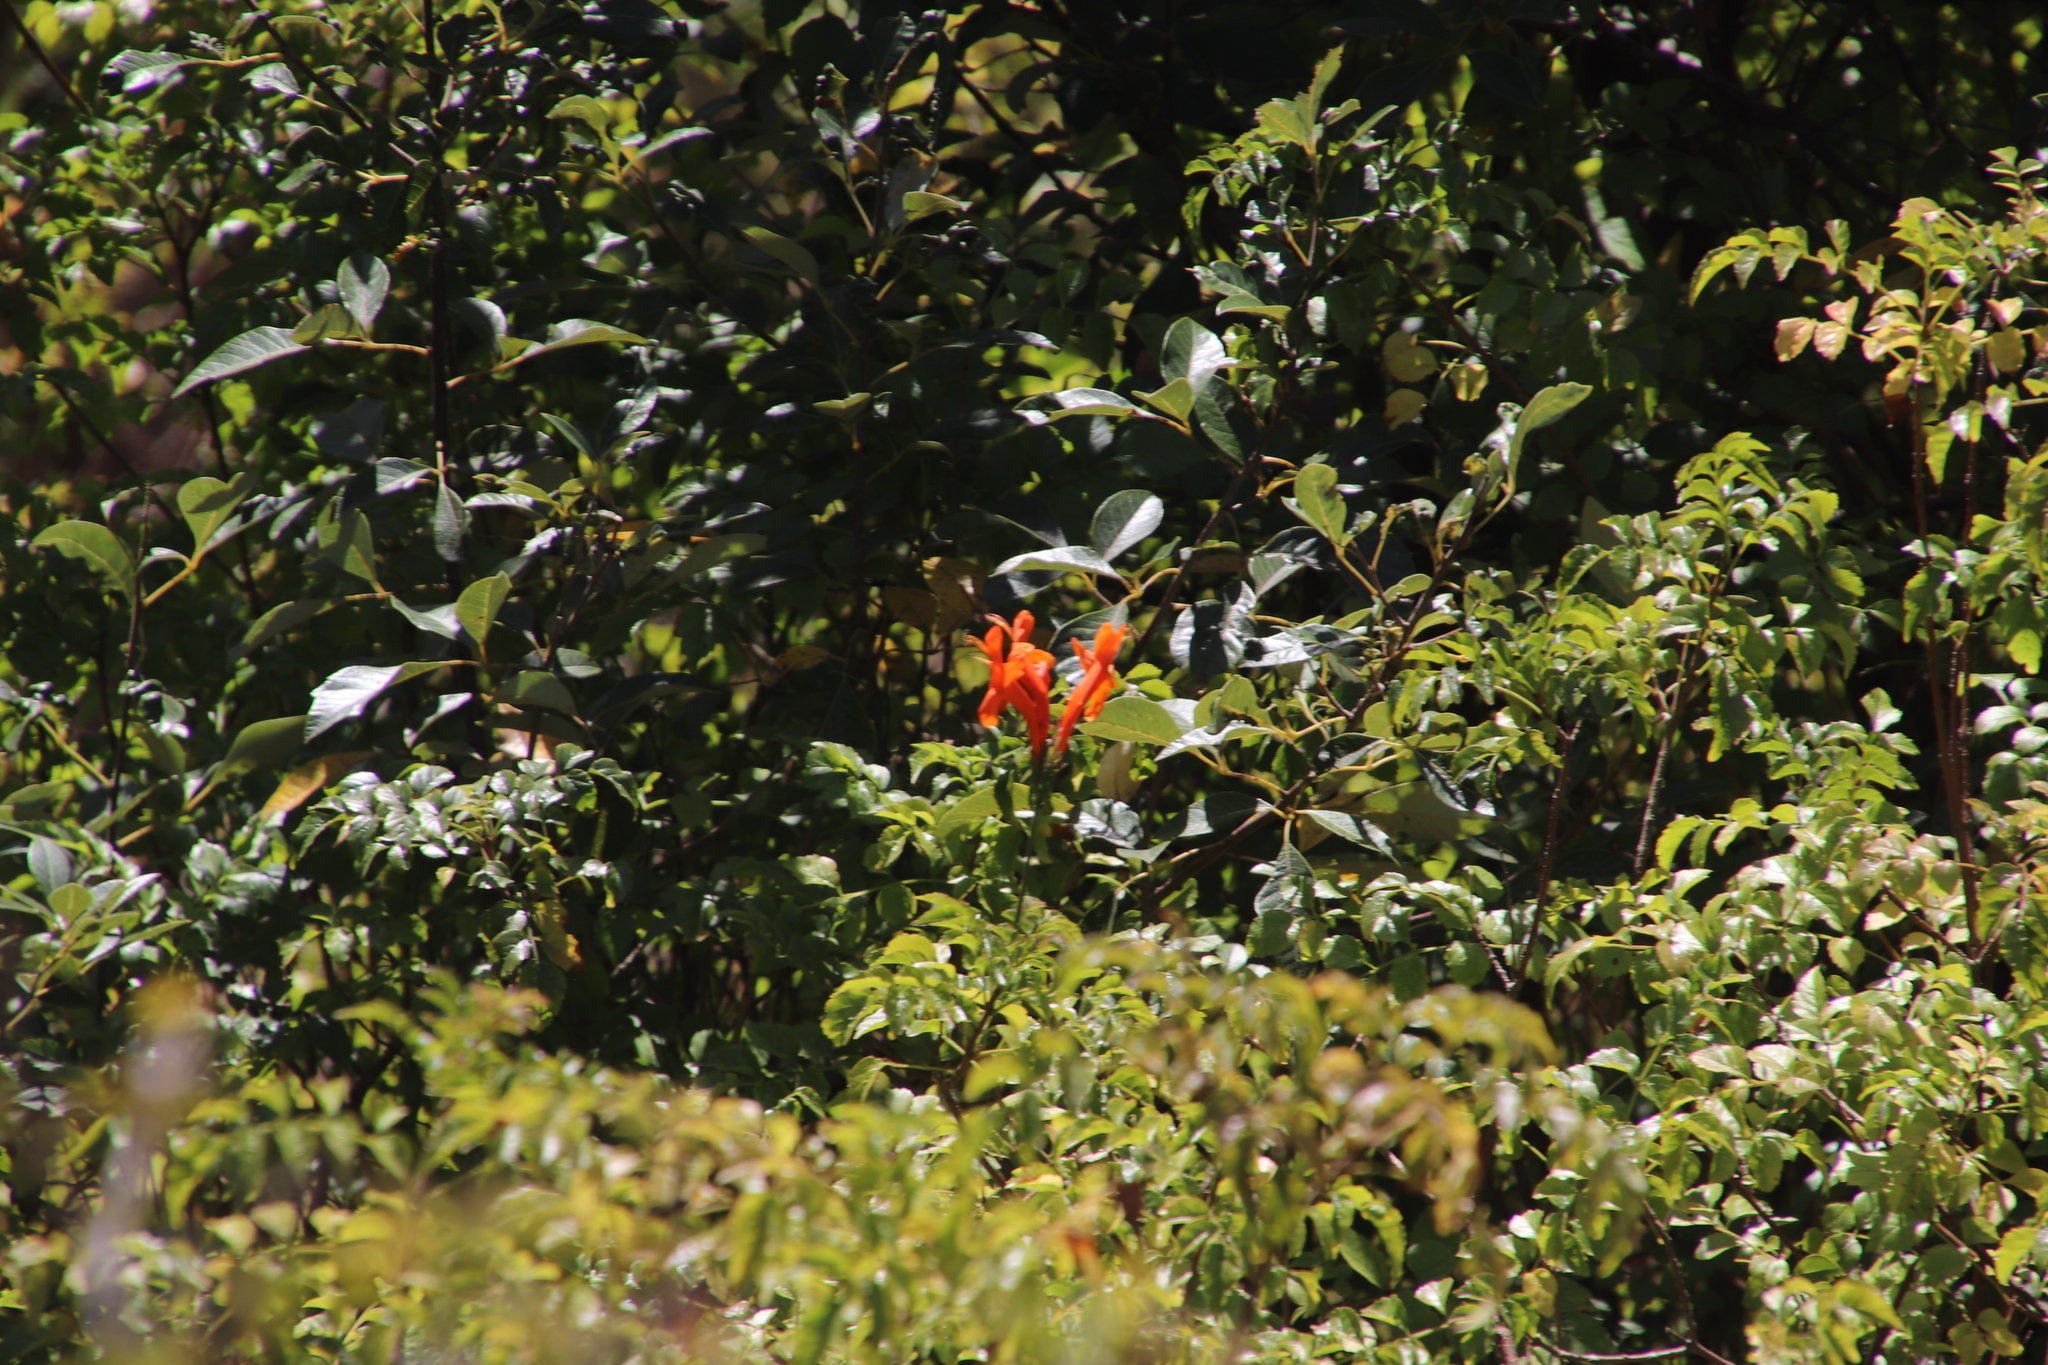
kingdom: Plantae
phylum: Tracheophyta
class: Magnoliopsida
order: Lamiales
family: Bignoniaceae
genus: Tecomaria
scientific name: Tecomaria capensis
